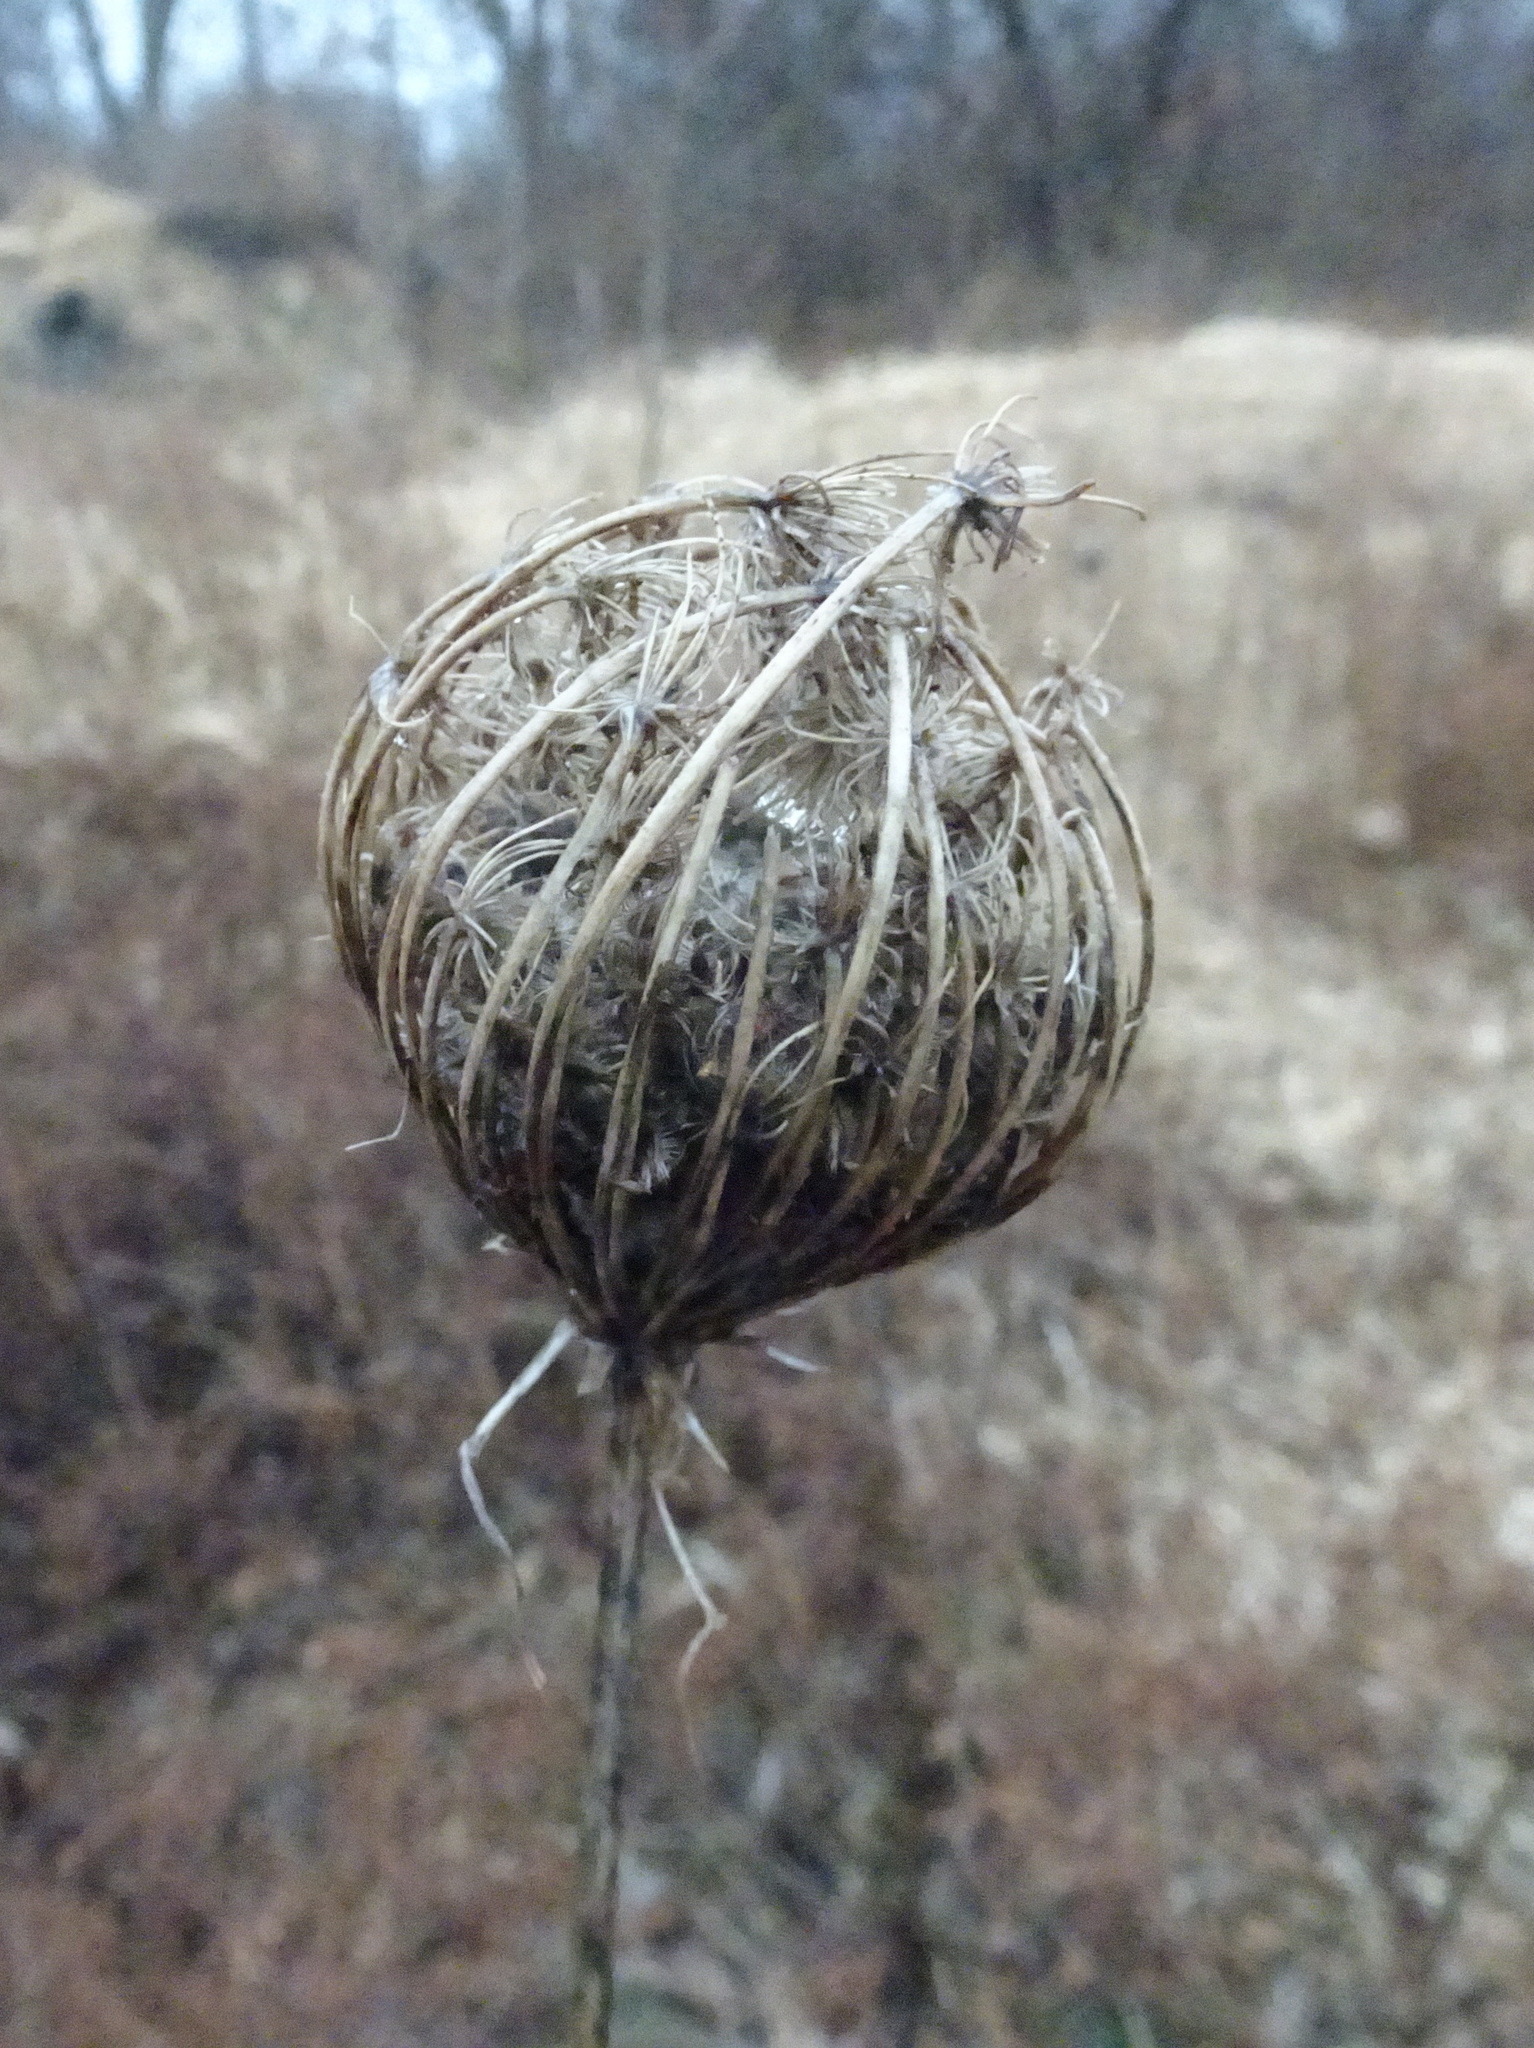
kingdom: Plantae
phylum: Tracheophyta
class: Magnoliopsida
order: Apiales
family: Apiaceae
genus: Daucus
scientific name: Daucus carota
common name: Wild carrot
